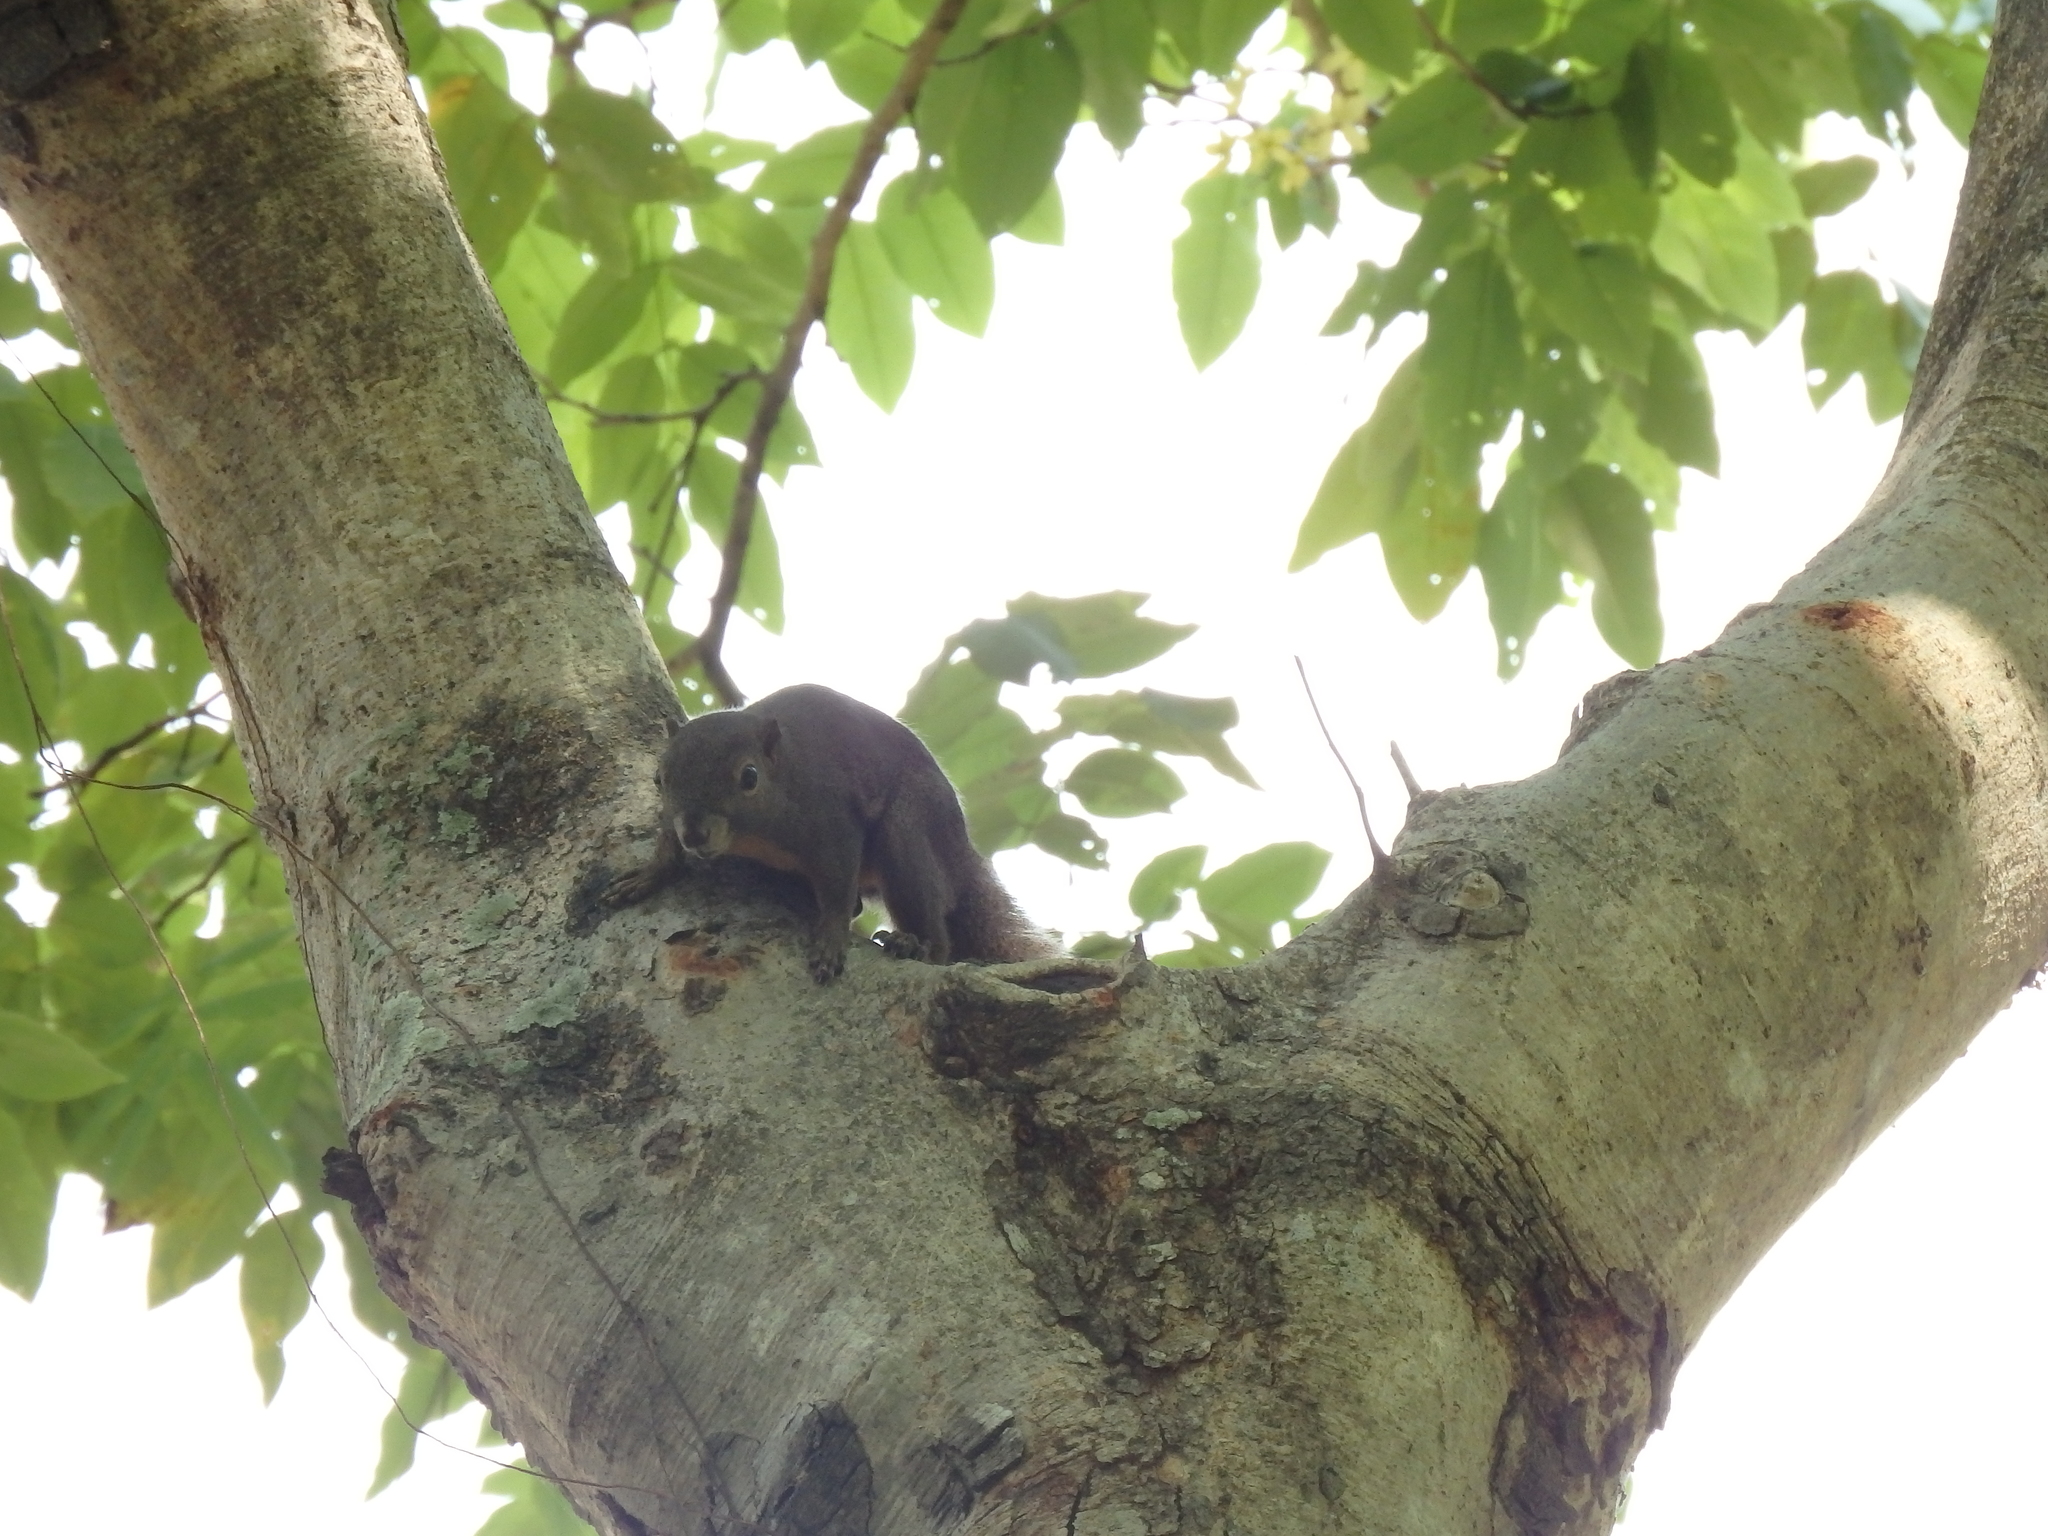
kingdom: Animalia
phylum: Chordata
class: Mammalia
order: Rodentia
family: Sciuridae
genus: Callosciurus
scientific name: Callosciurus notatus
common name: Plantain squirrel
